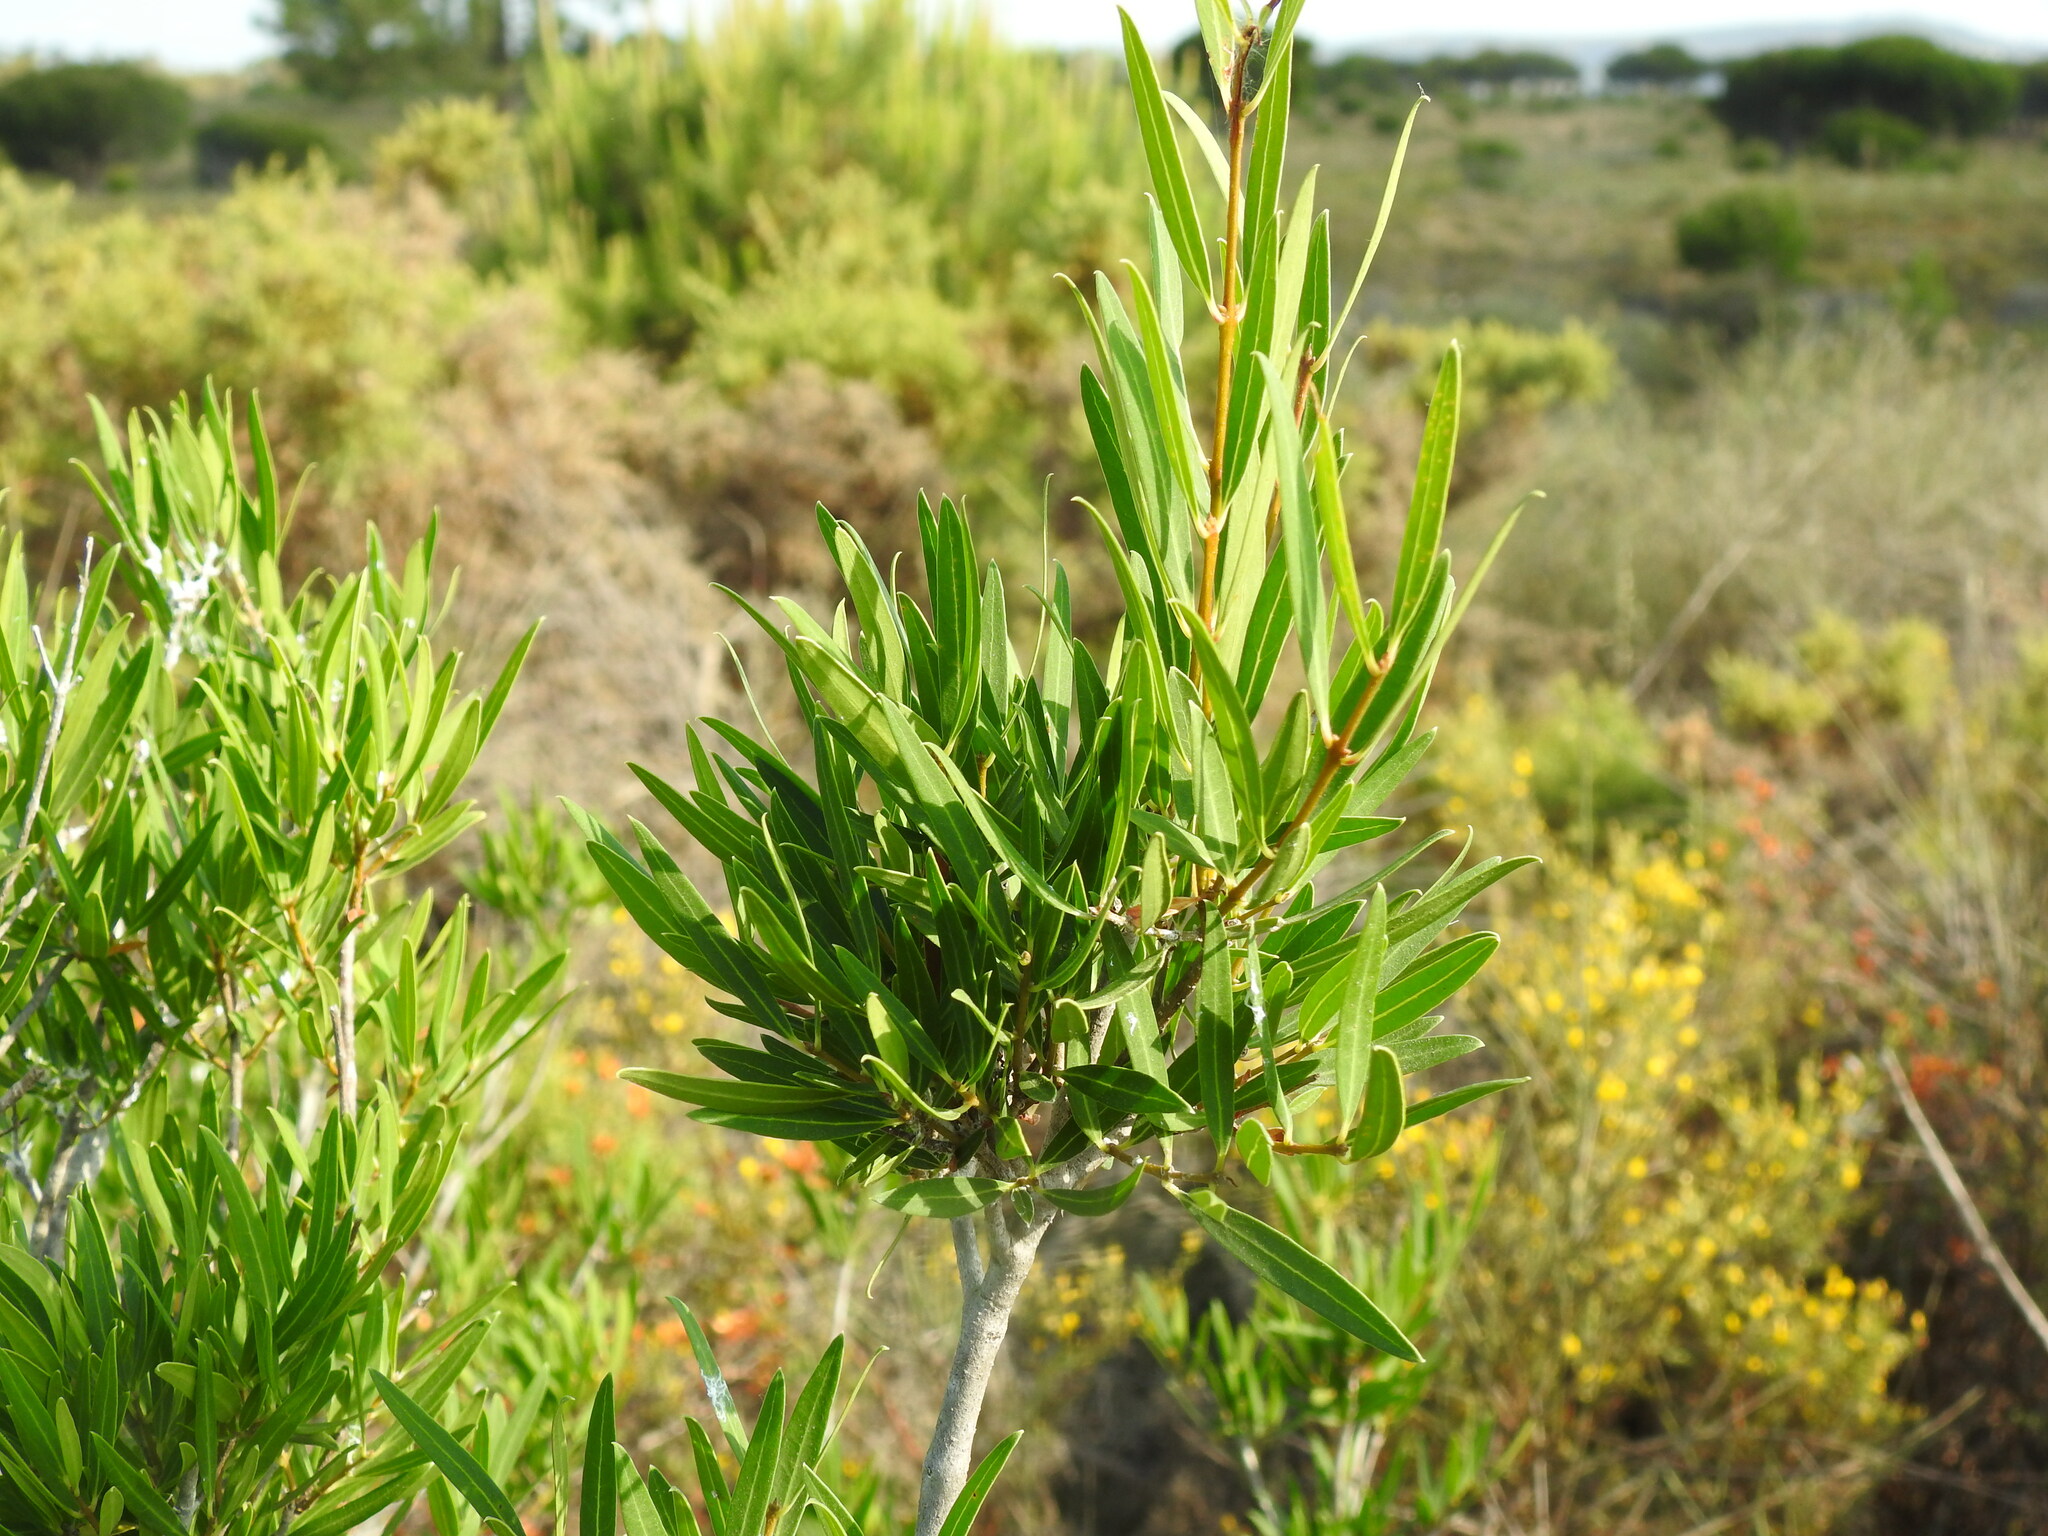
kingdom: Plantae
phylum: Tracheophyta
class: Magnoliopsida
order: Lamiales
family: Oleaceae
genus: Phillyrea
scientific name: Phillyrea angustifolia
